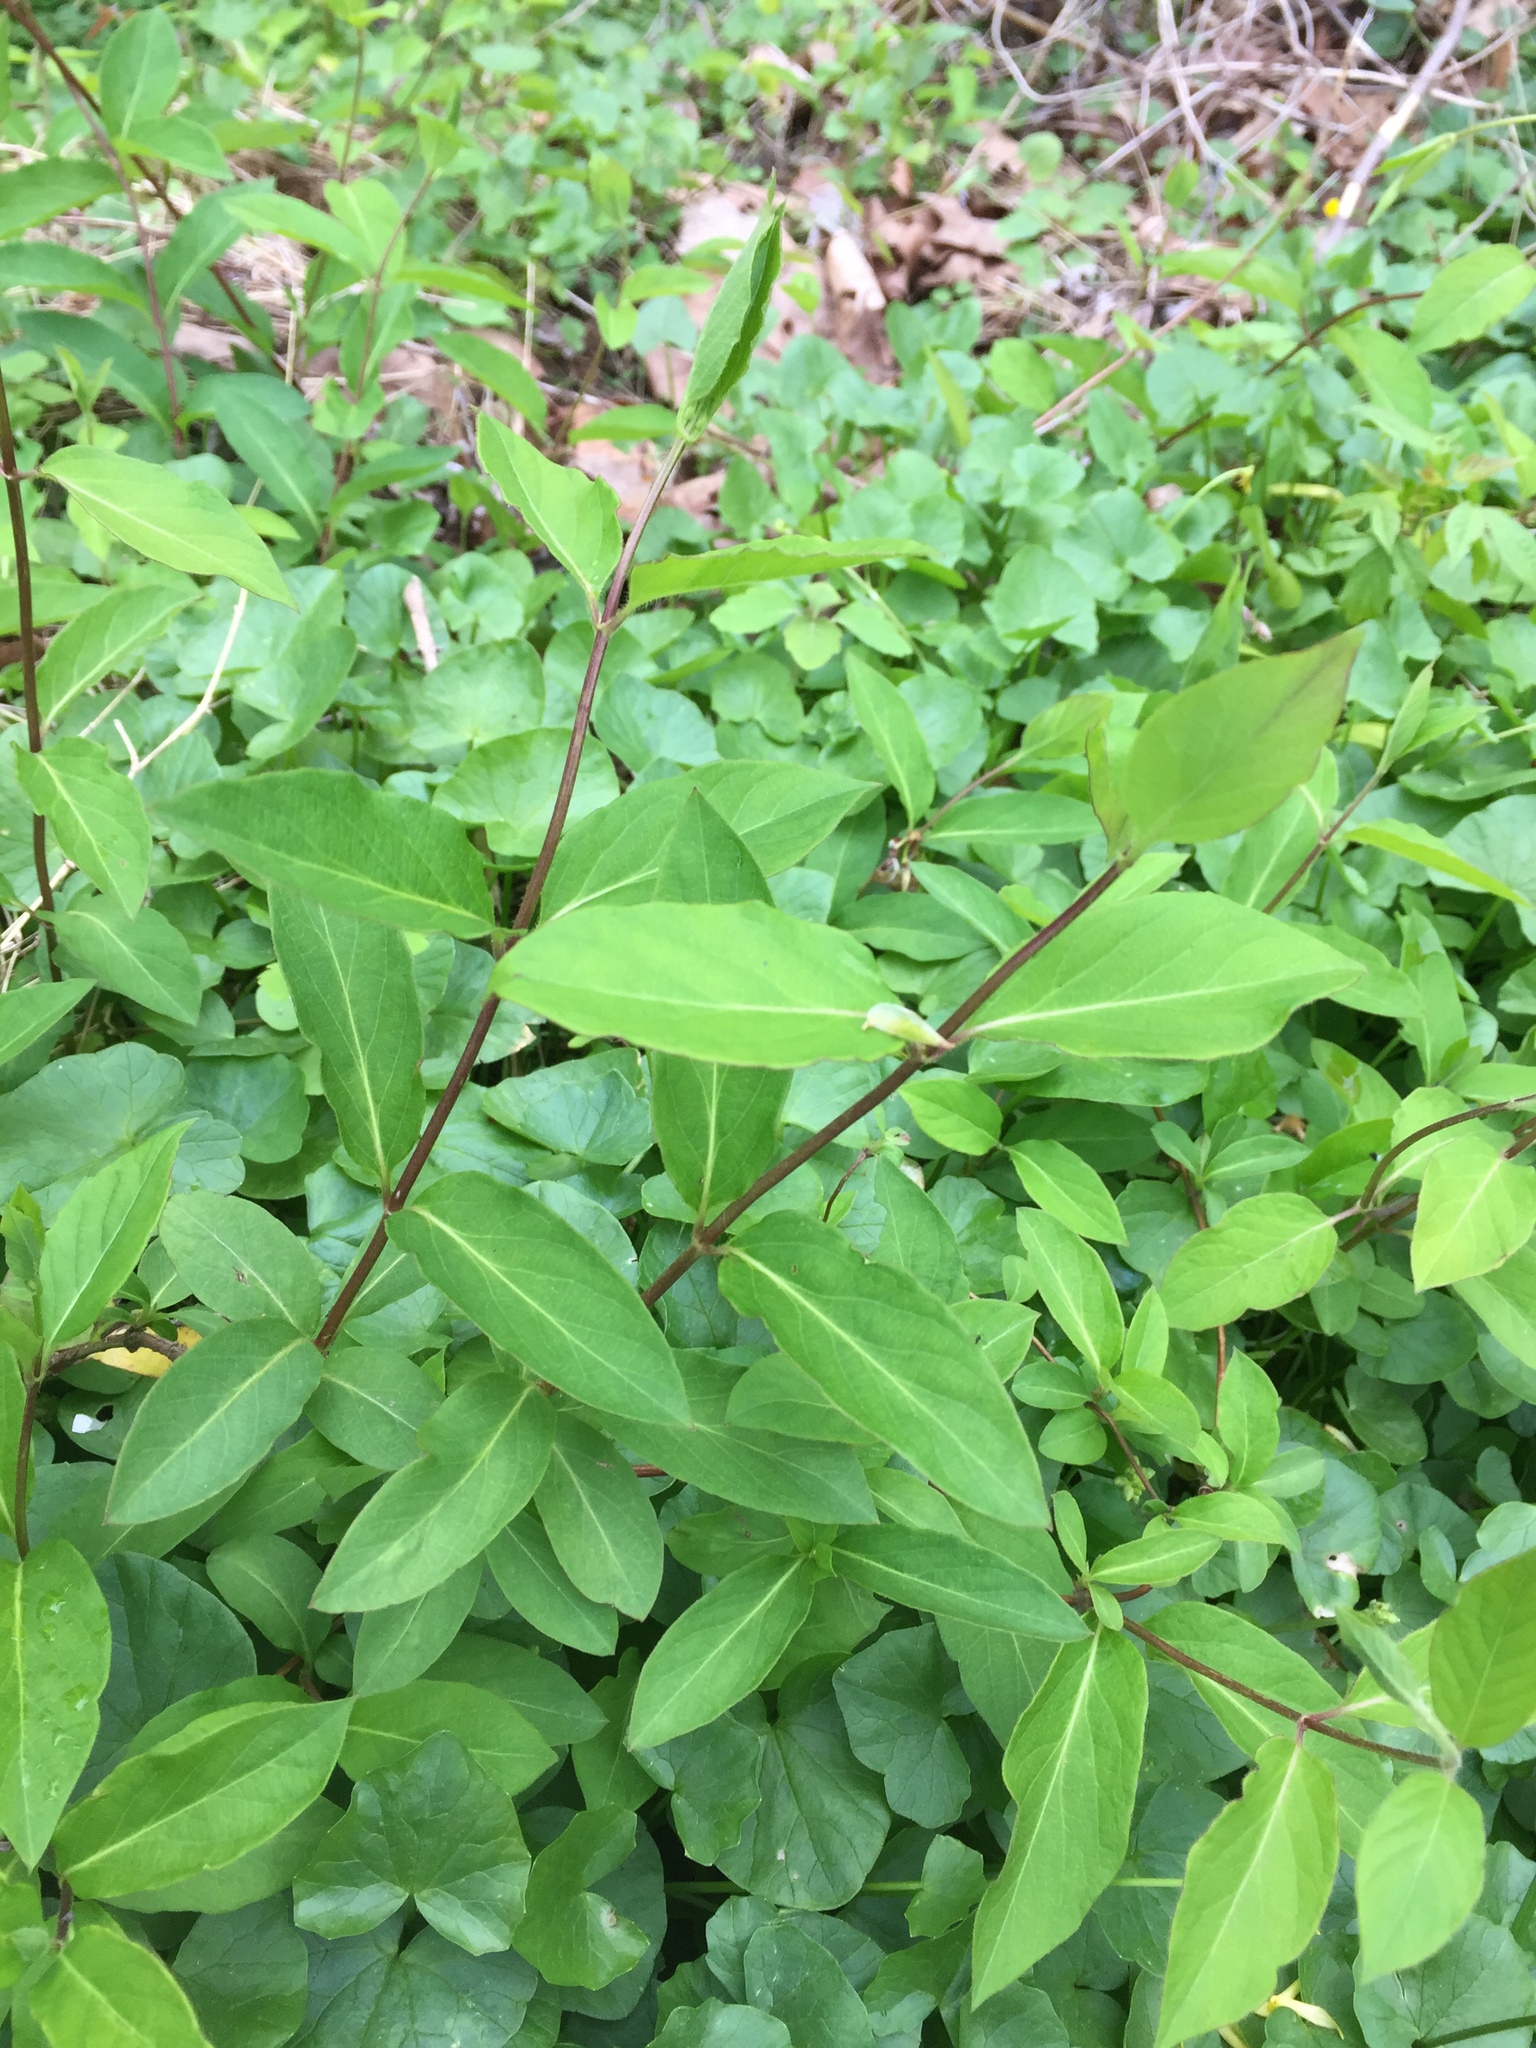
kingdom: Plantae
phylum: Tracheophyta
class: Magnoliopsida
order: Dipsacales
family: Caprifoliaceae
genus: Lonicera
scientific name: Lonicera japonica
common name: Japanese honeysuckle
